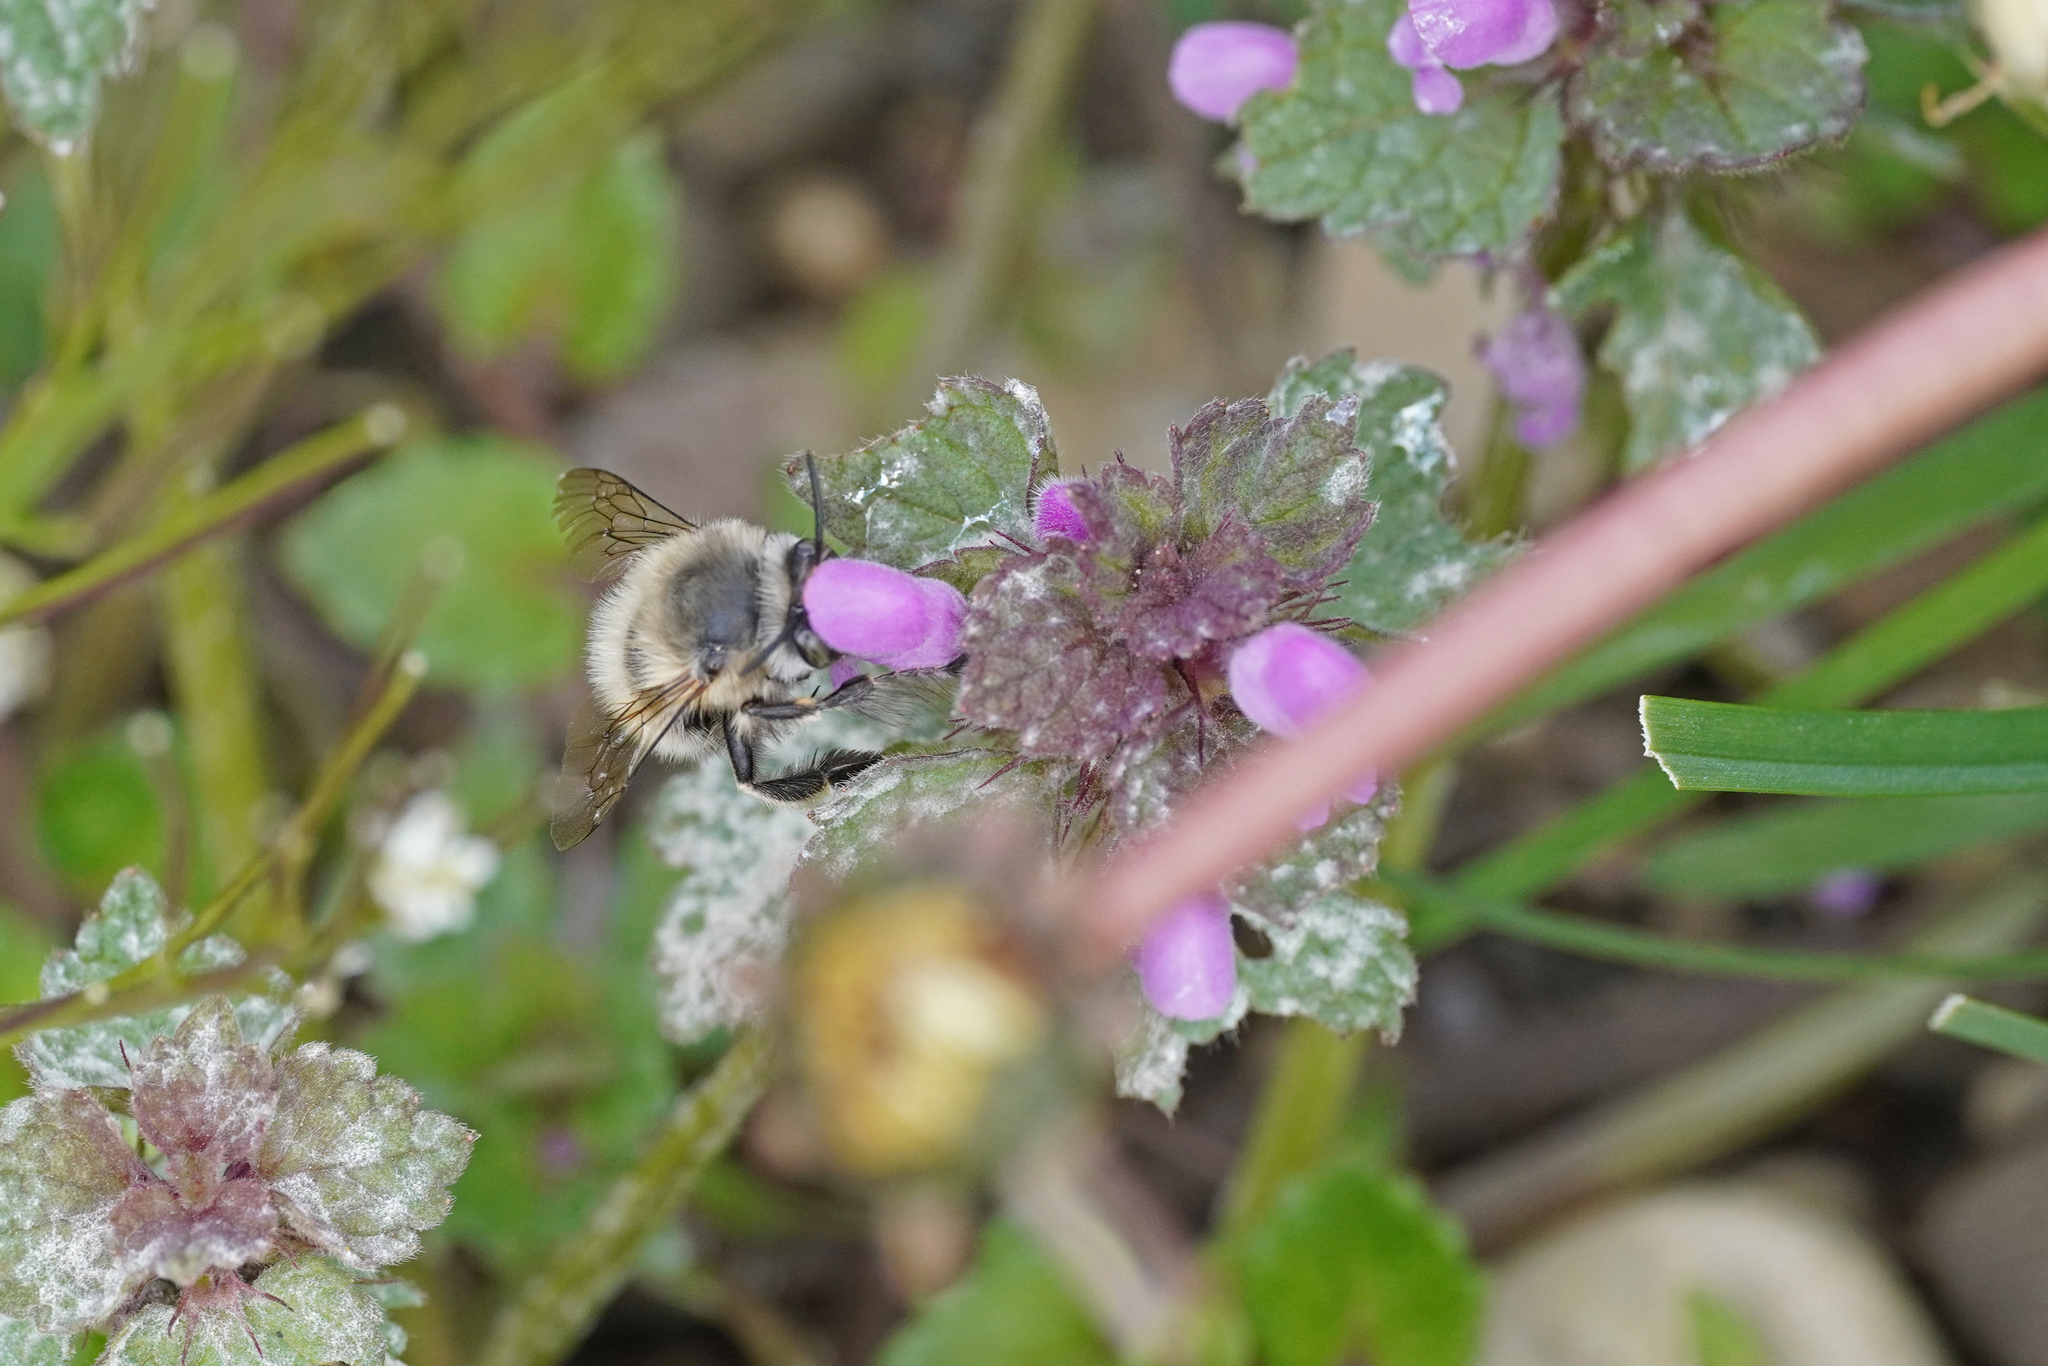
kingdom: Animalia
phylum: Arthropoda
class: Insecta
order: Hymenoptera
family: Apidae
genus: Anthophora
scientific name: Anthophora plumipes
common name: Hairy-footed flower bee
